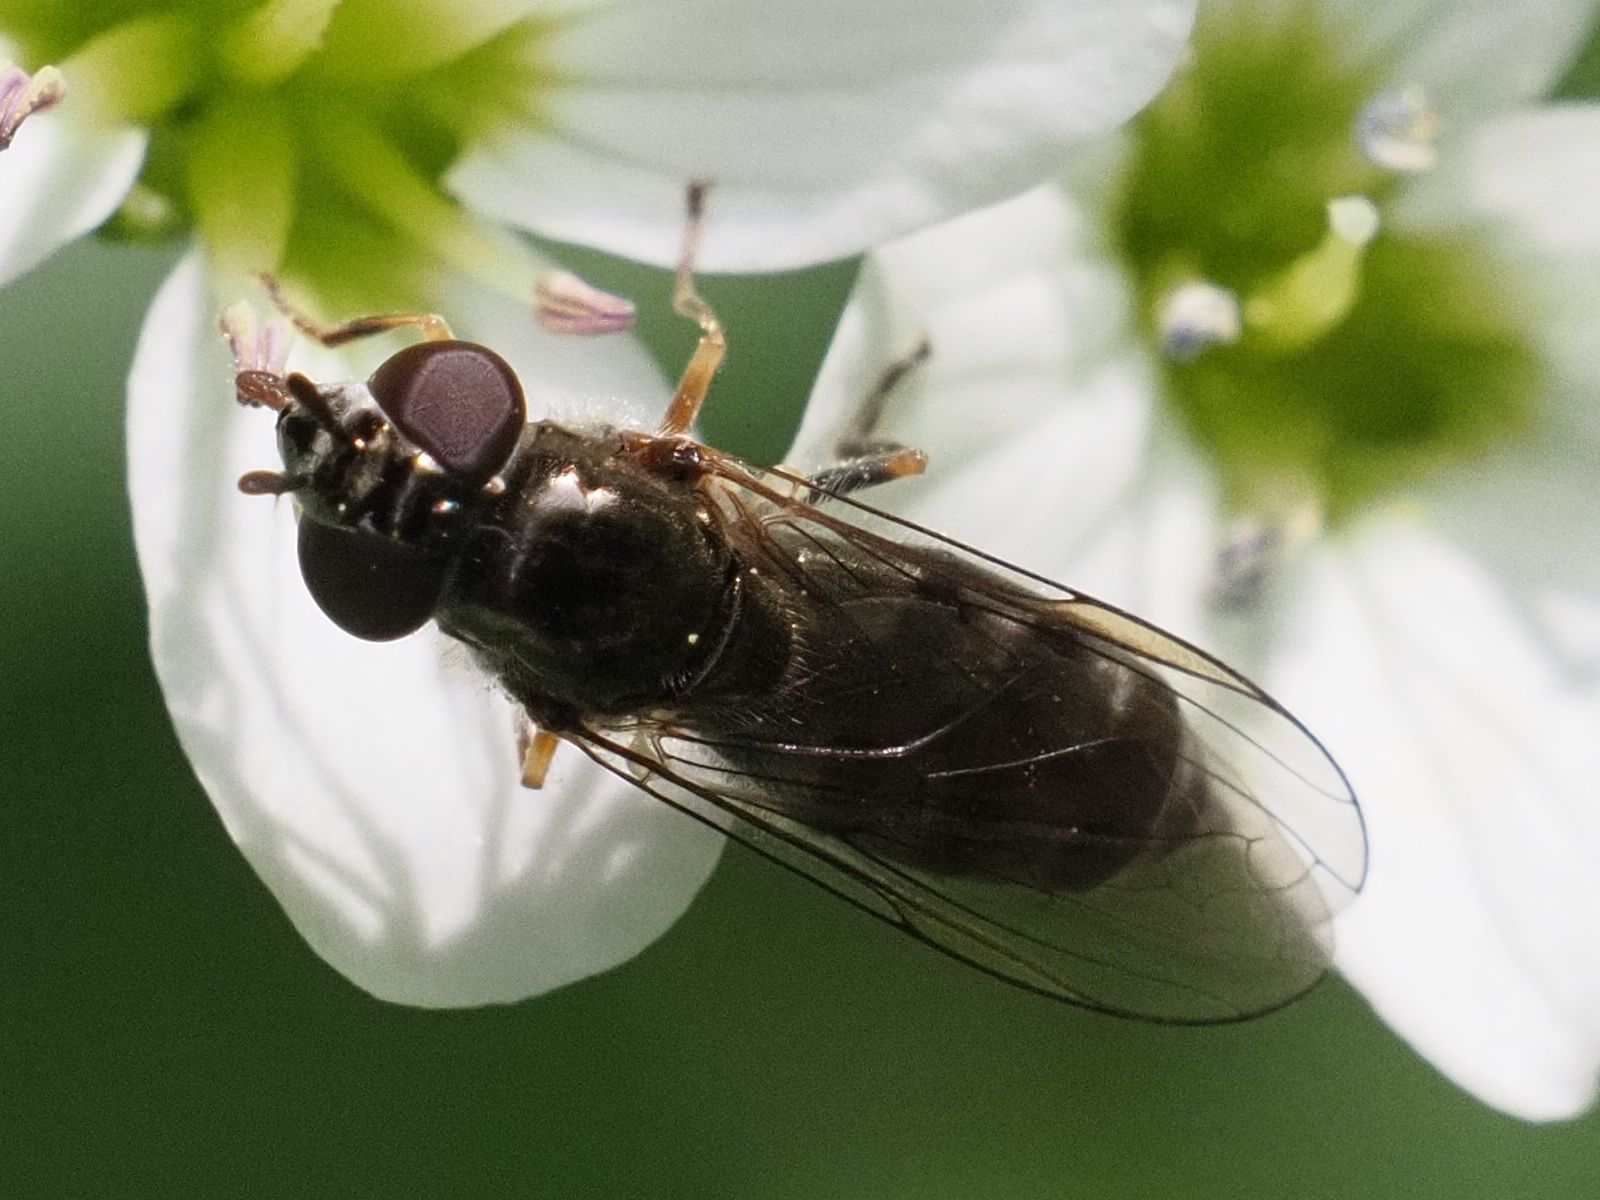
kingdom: Animalia
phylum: Arthropoda
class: Insecta
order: Diptera
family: Syrphidae
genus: Platycheirus
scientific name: Platycheirus albimanus
